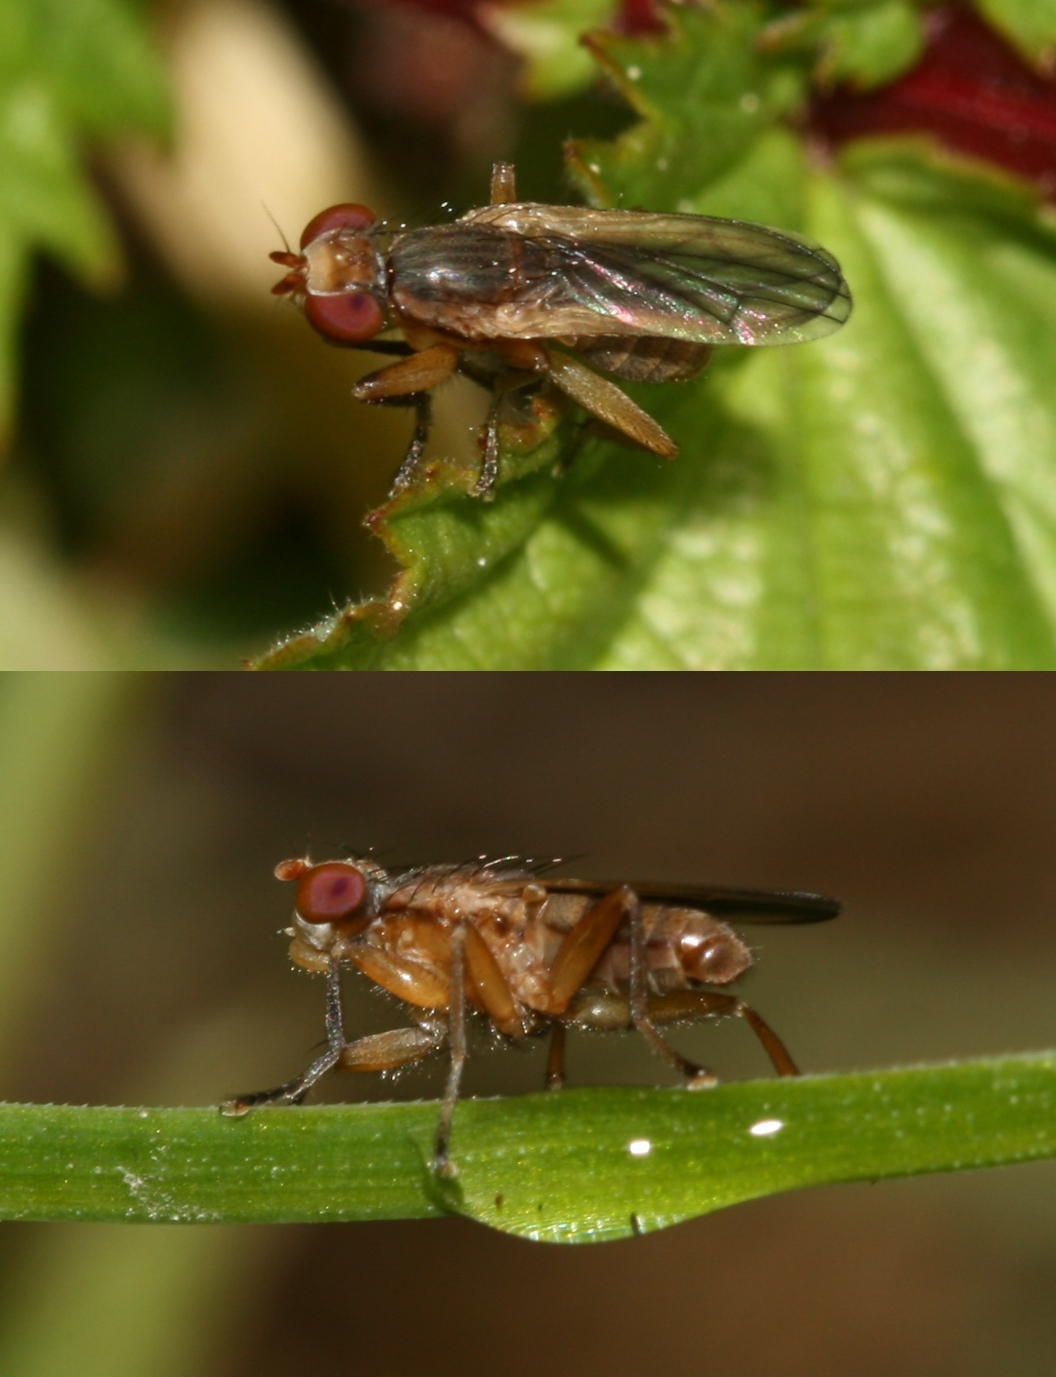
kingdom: Animalia
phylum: Arthropoda
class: Insecta
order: Diptera
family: Sciomyzidae
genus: Pherbellia
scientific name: Pherbellia albocostata
